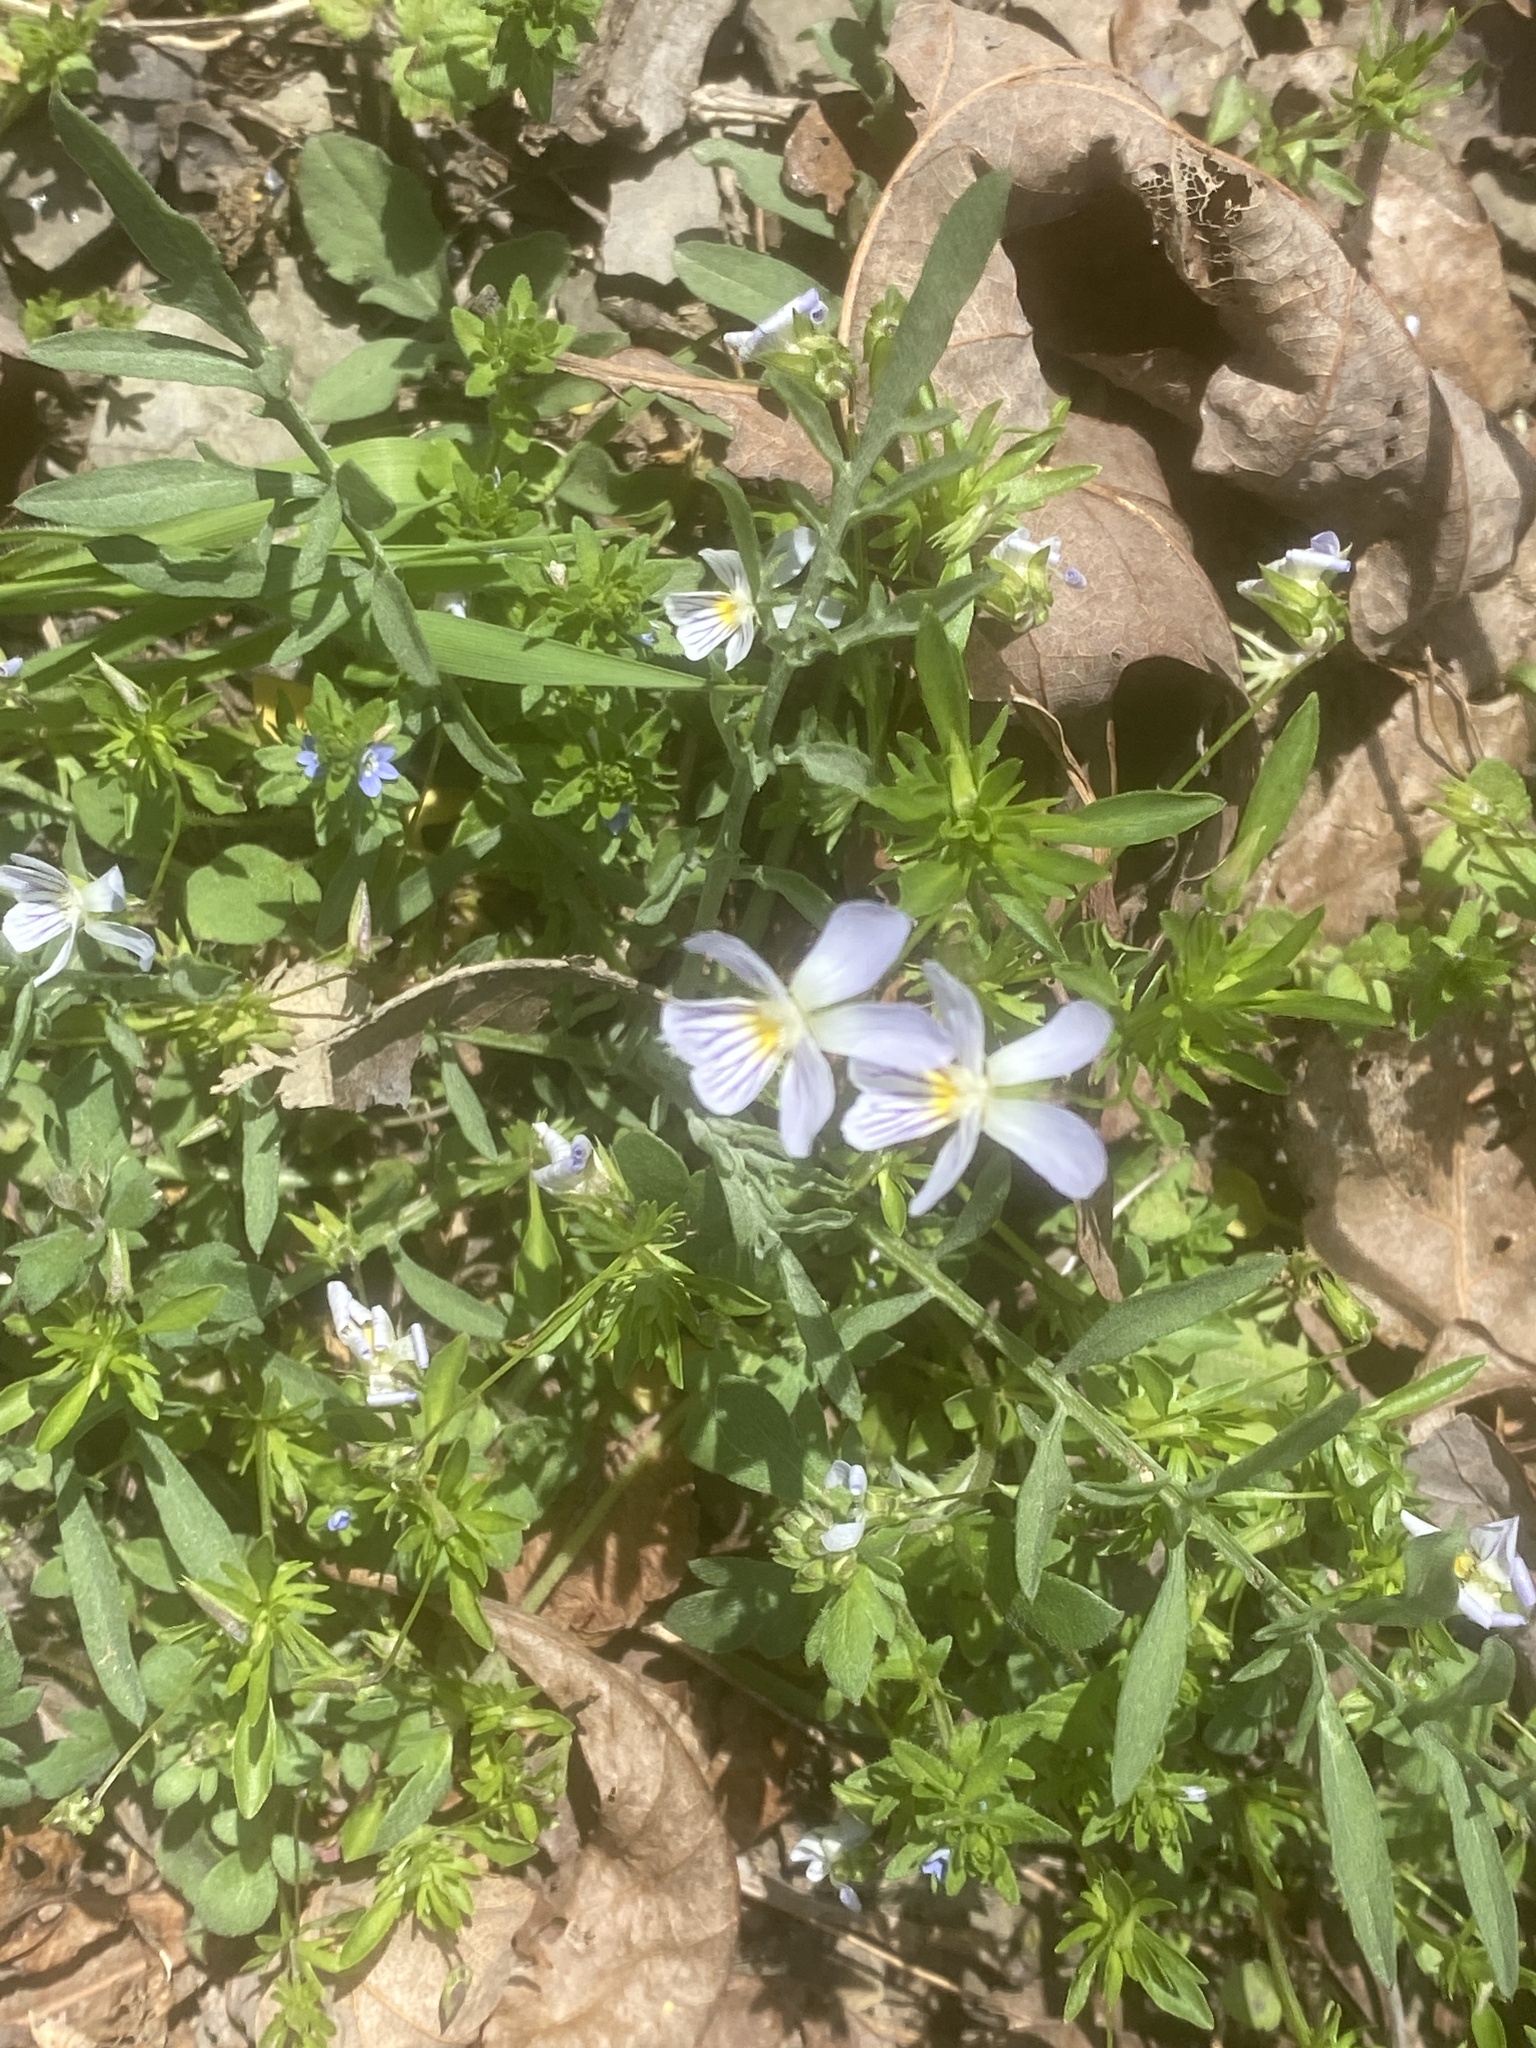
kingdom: Plantae
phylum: Tracheophyta
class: Magnoliopsida
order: Malpighiales
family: Violaceae
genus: Viola
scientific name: Viola rafinesquei
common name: American field pansy
